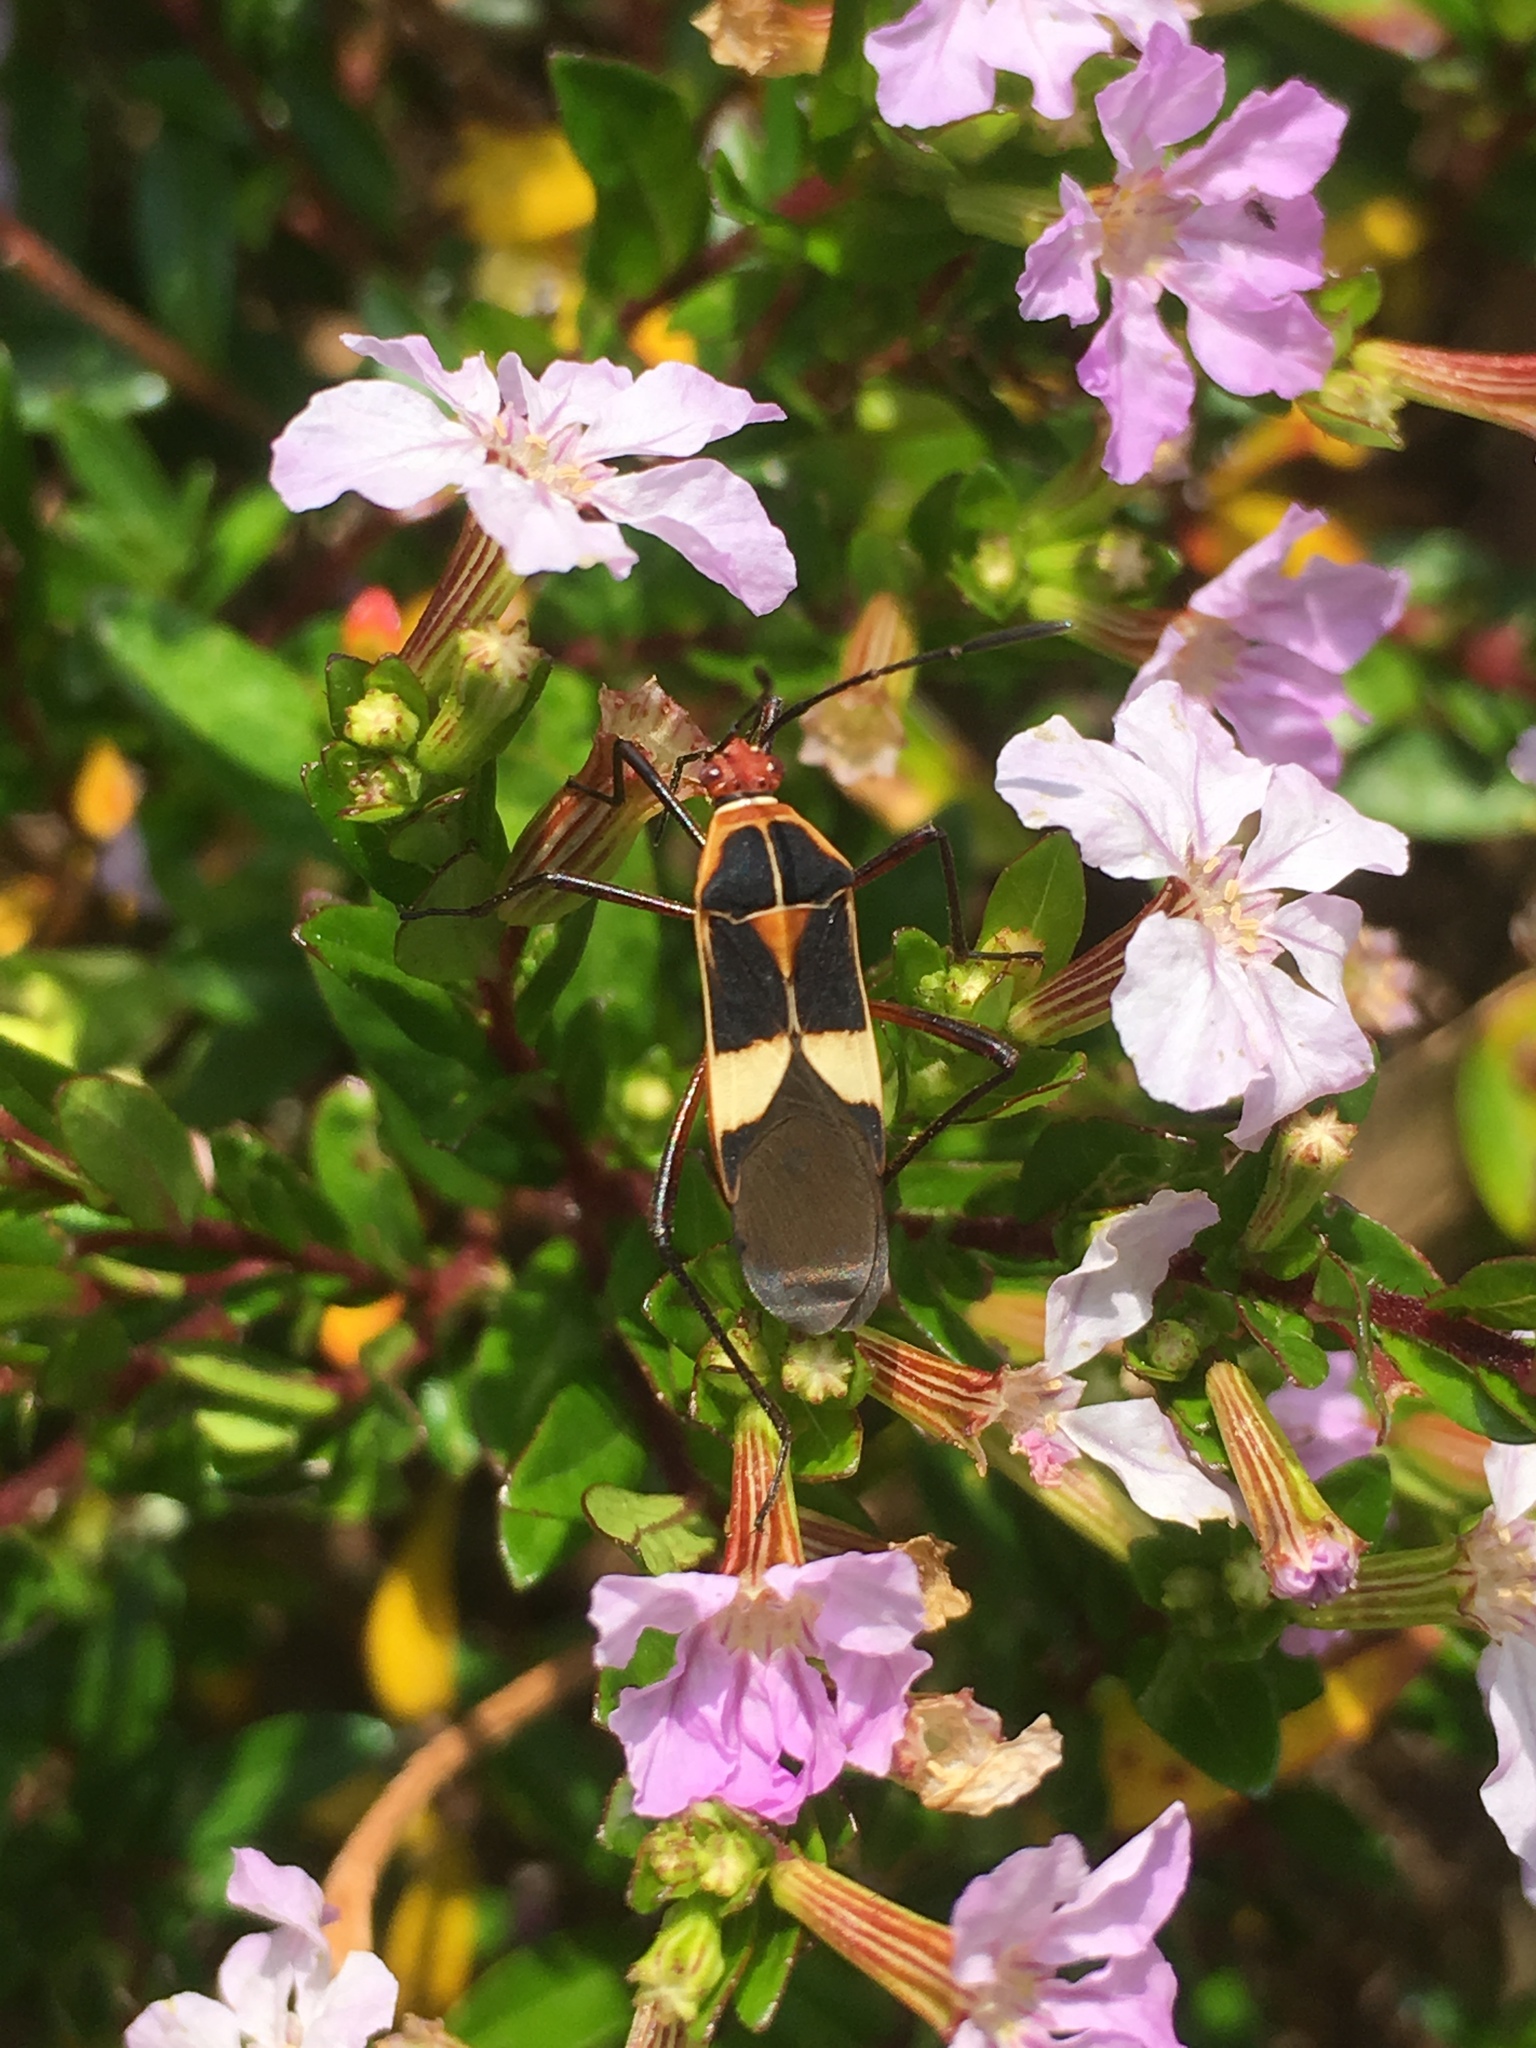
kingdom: Animalia
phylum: Arthropoda
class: Insecta
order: Hemiptera
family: Coreidae
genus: Hypselonotus
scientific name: Hypselonotus interruptus
